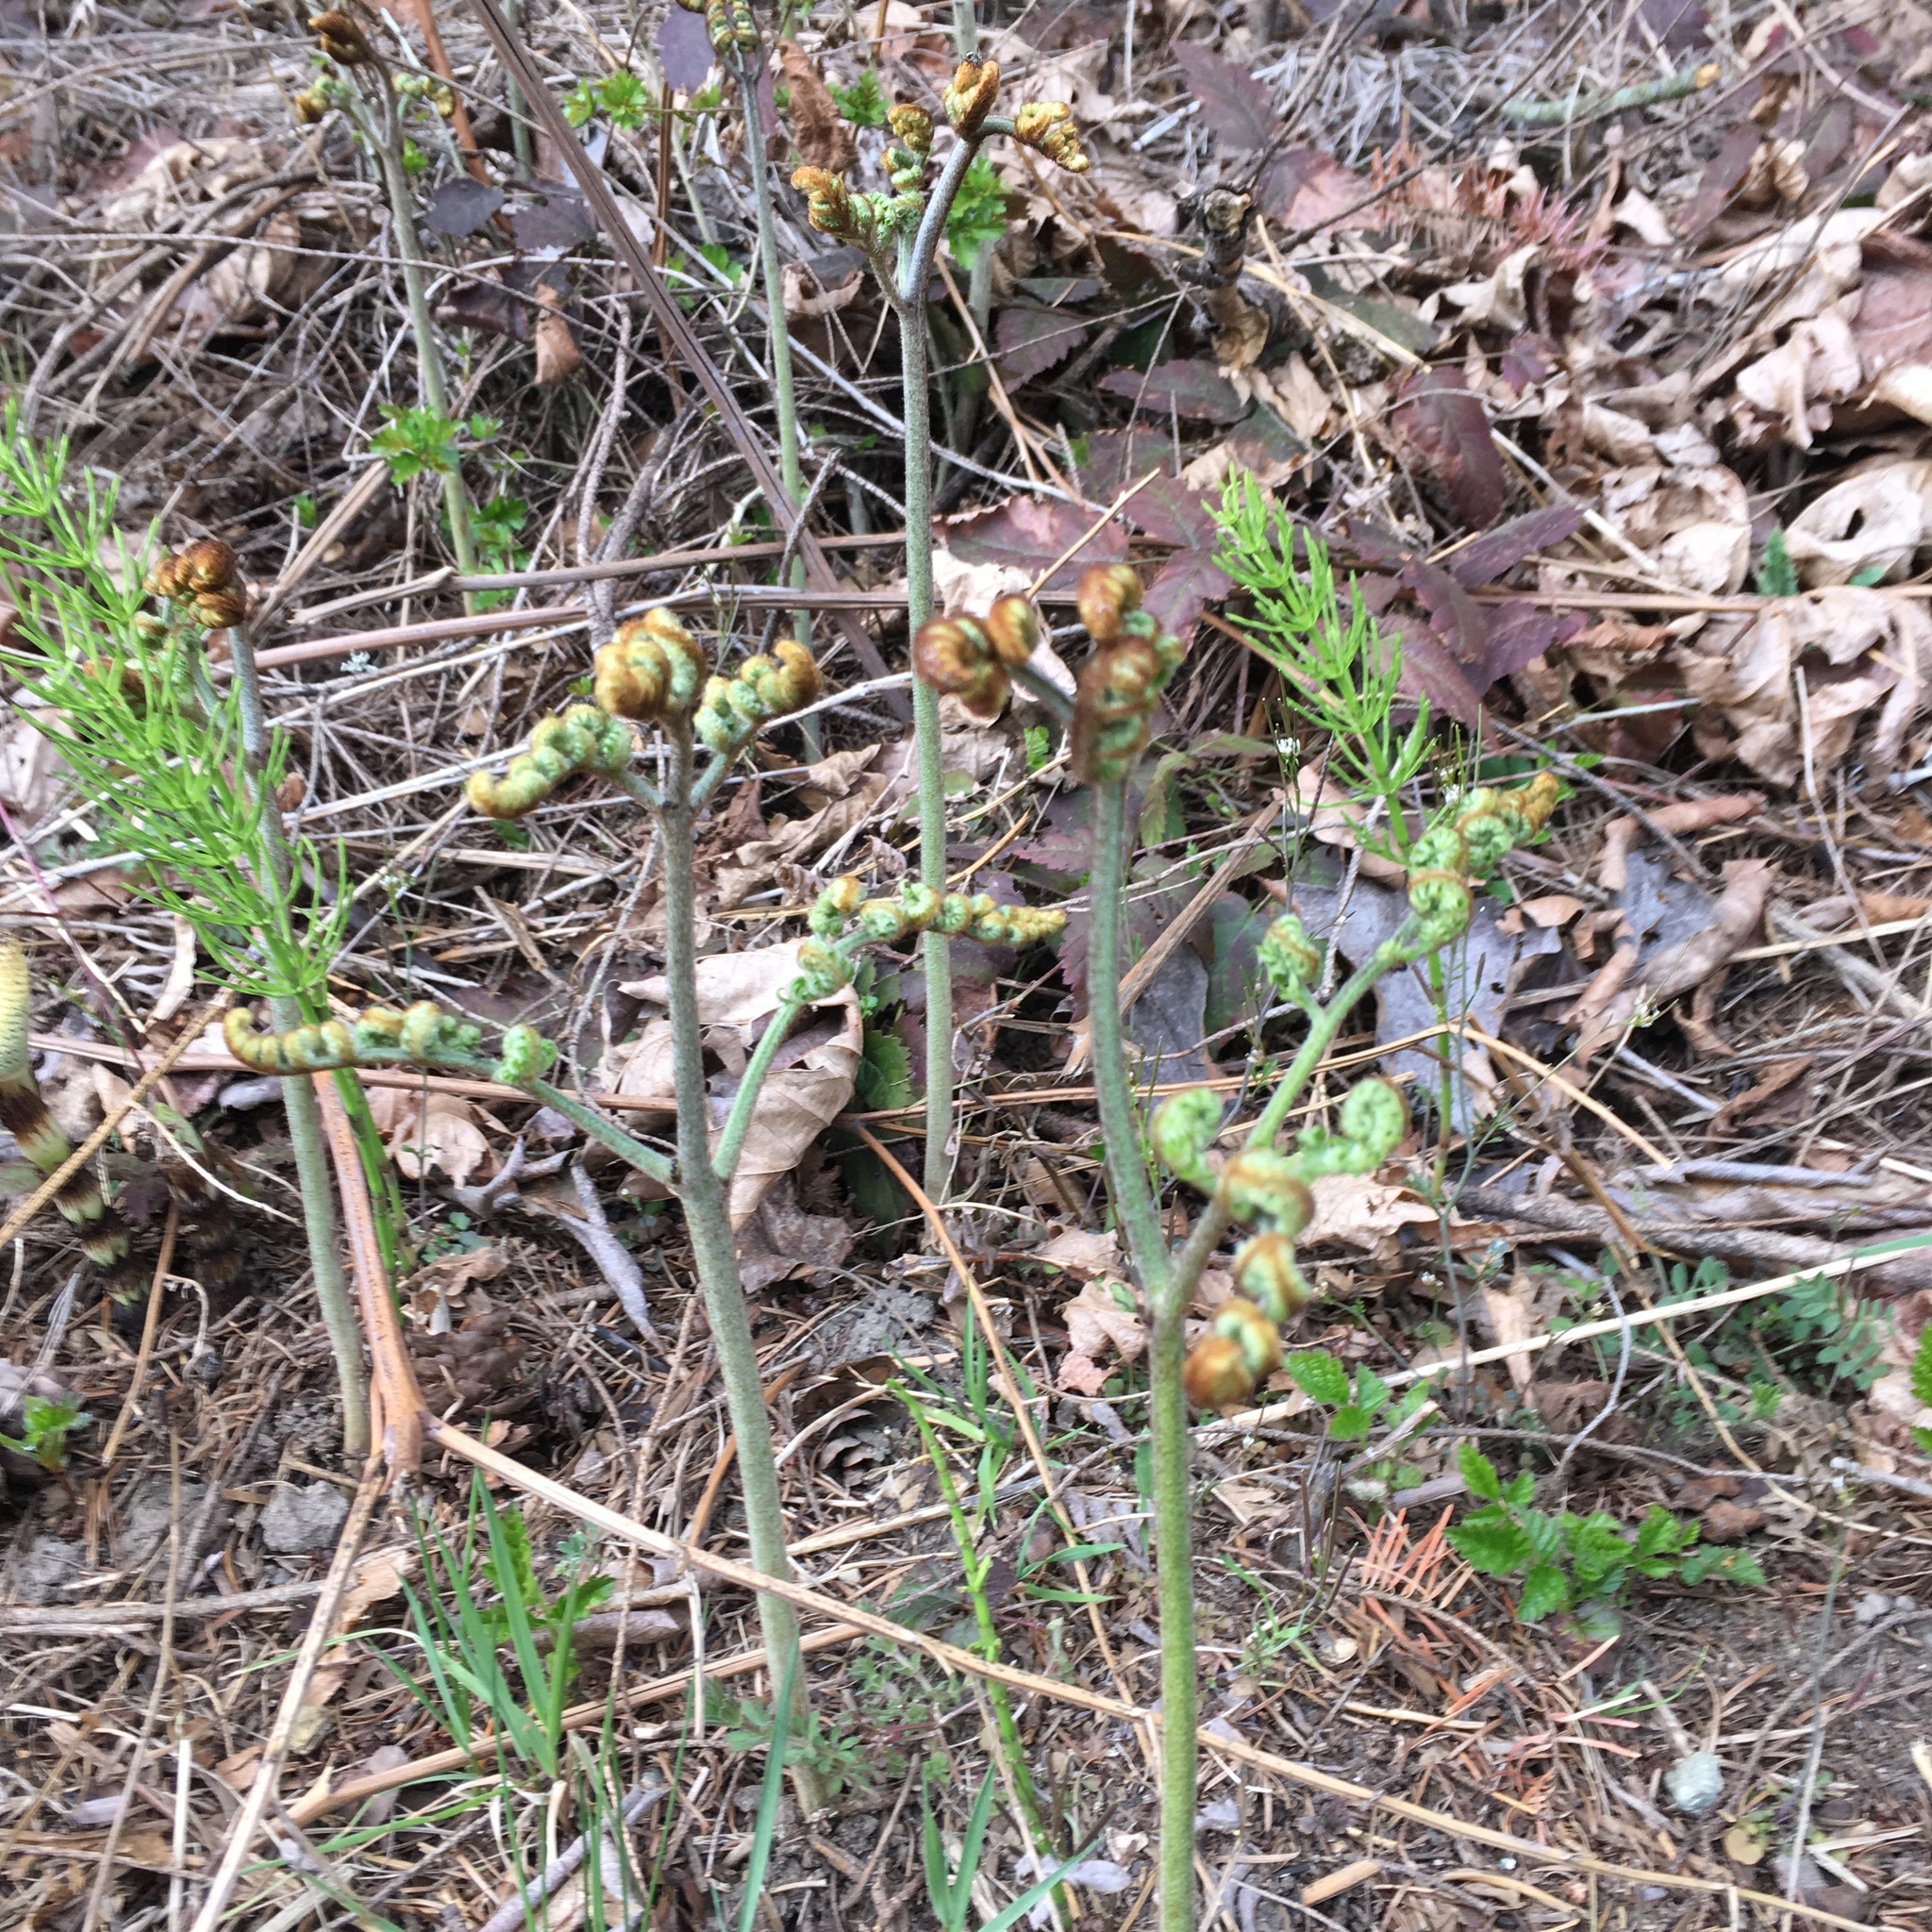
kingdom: Plantae
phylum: Tracheophyta
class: Polypodiopsida
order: Polypodiales
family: Dennstaedtiaceae
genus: Pteridium
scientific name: Pteridium aquilinum
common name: Bracken
